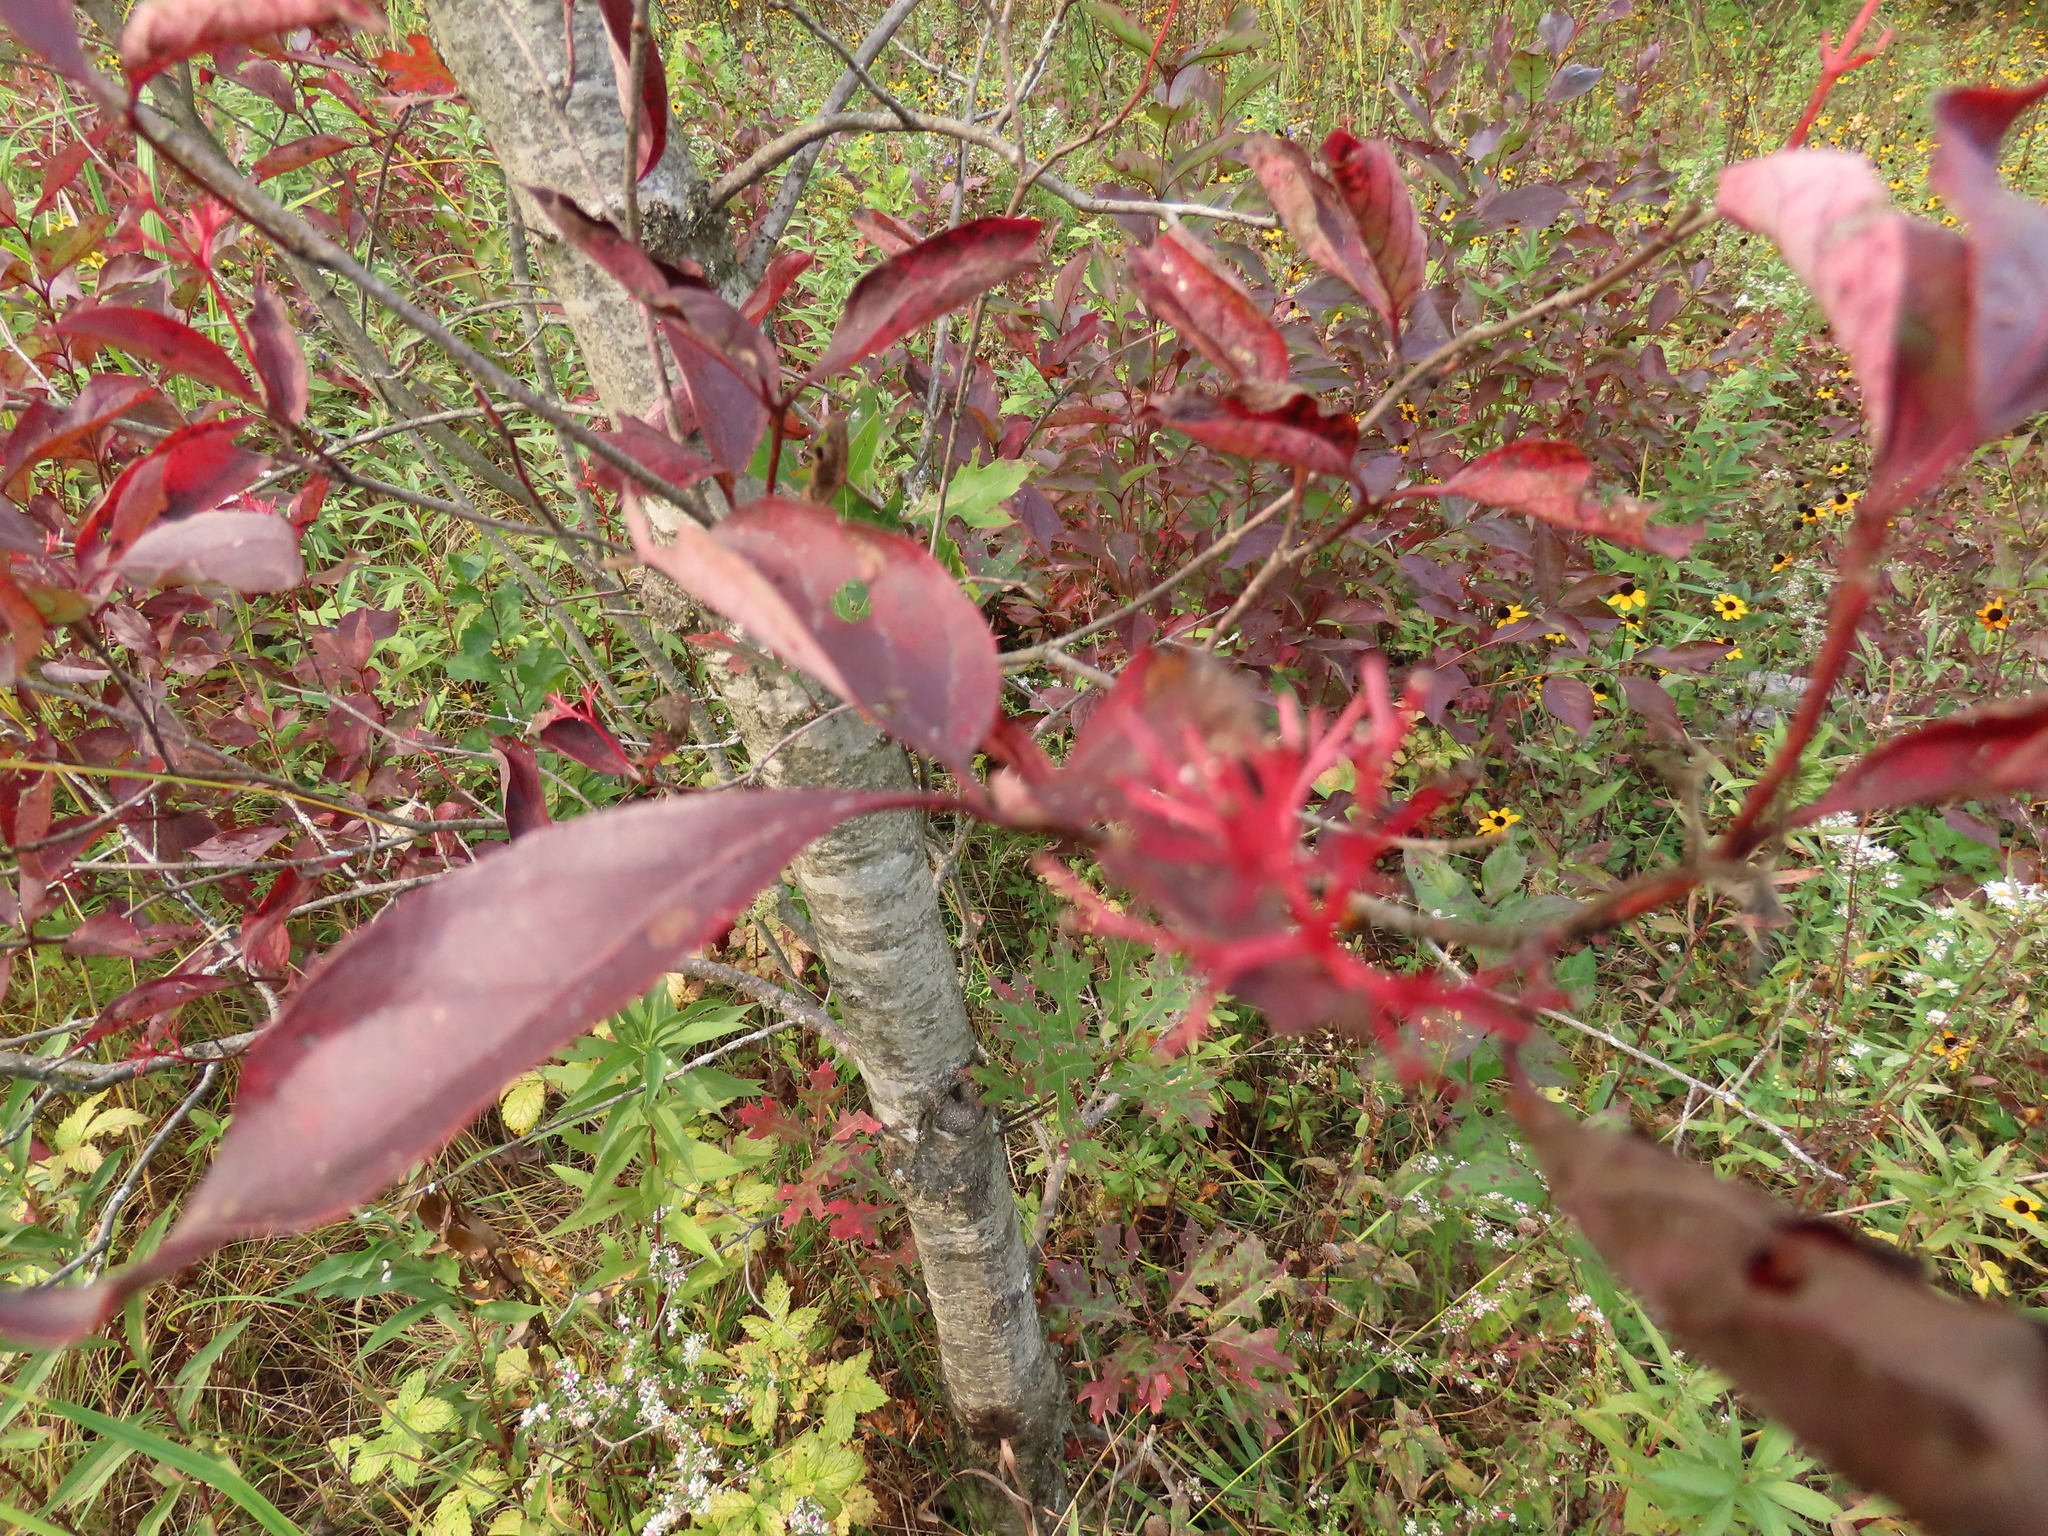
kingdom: Plantae
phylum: Tracheophyta
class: Magnoliopsida
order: Cornales
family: Cornaceae
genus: Cornus
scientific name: Cornus racemosa
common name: Panicled dogwood
